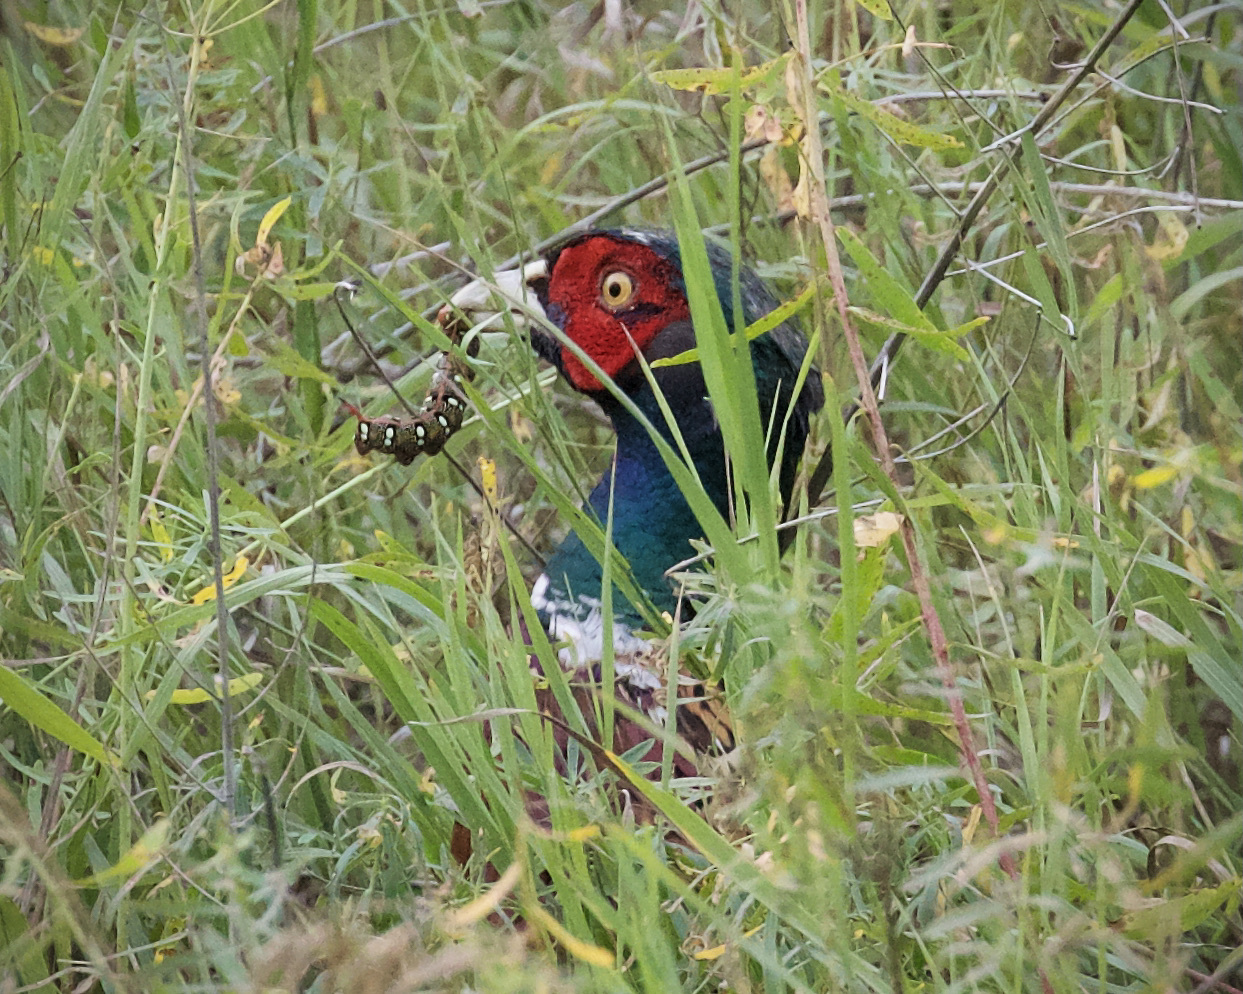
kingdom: Animalia
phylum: Chordata
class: Aves
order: Galliformes
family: Phasianidae
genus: Phasianus
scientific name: Phasianus colchicus
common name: Common pheasant
